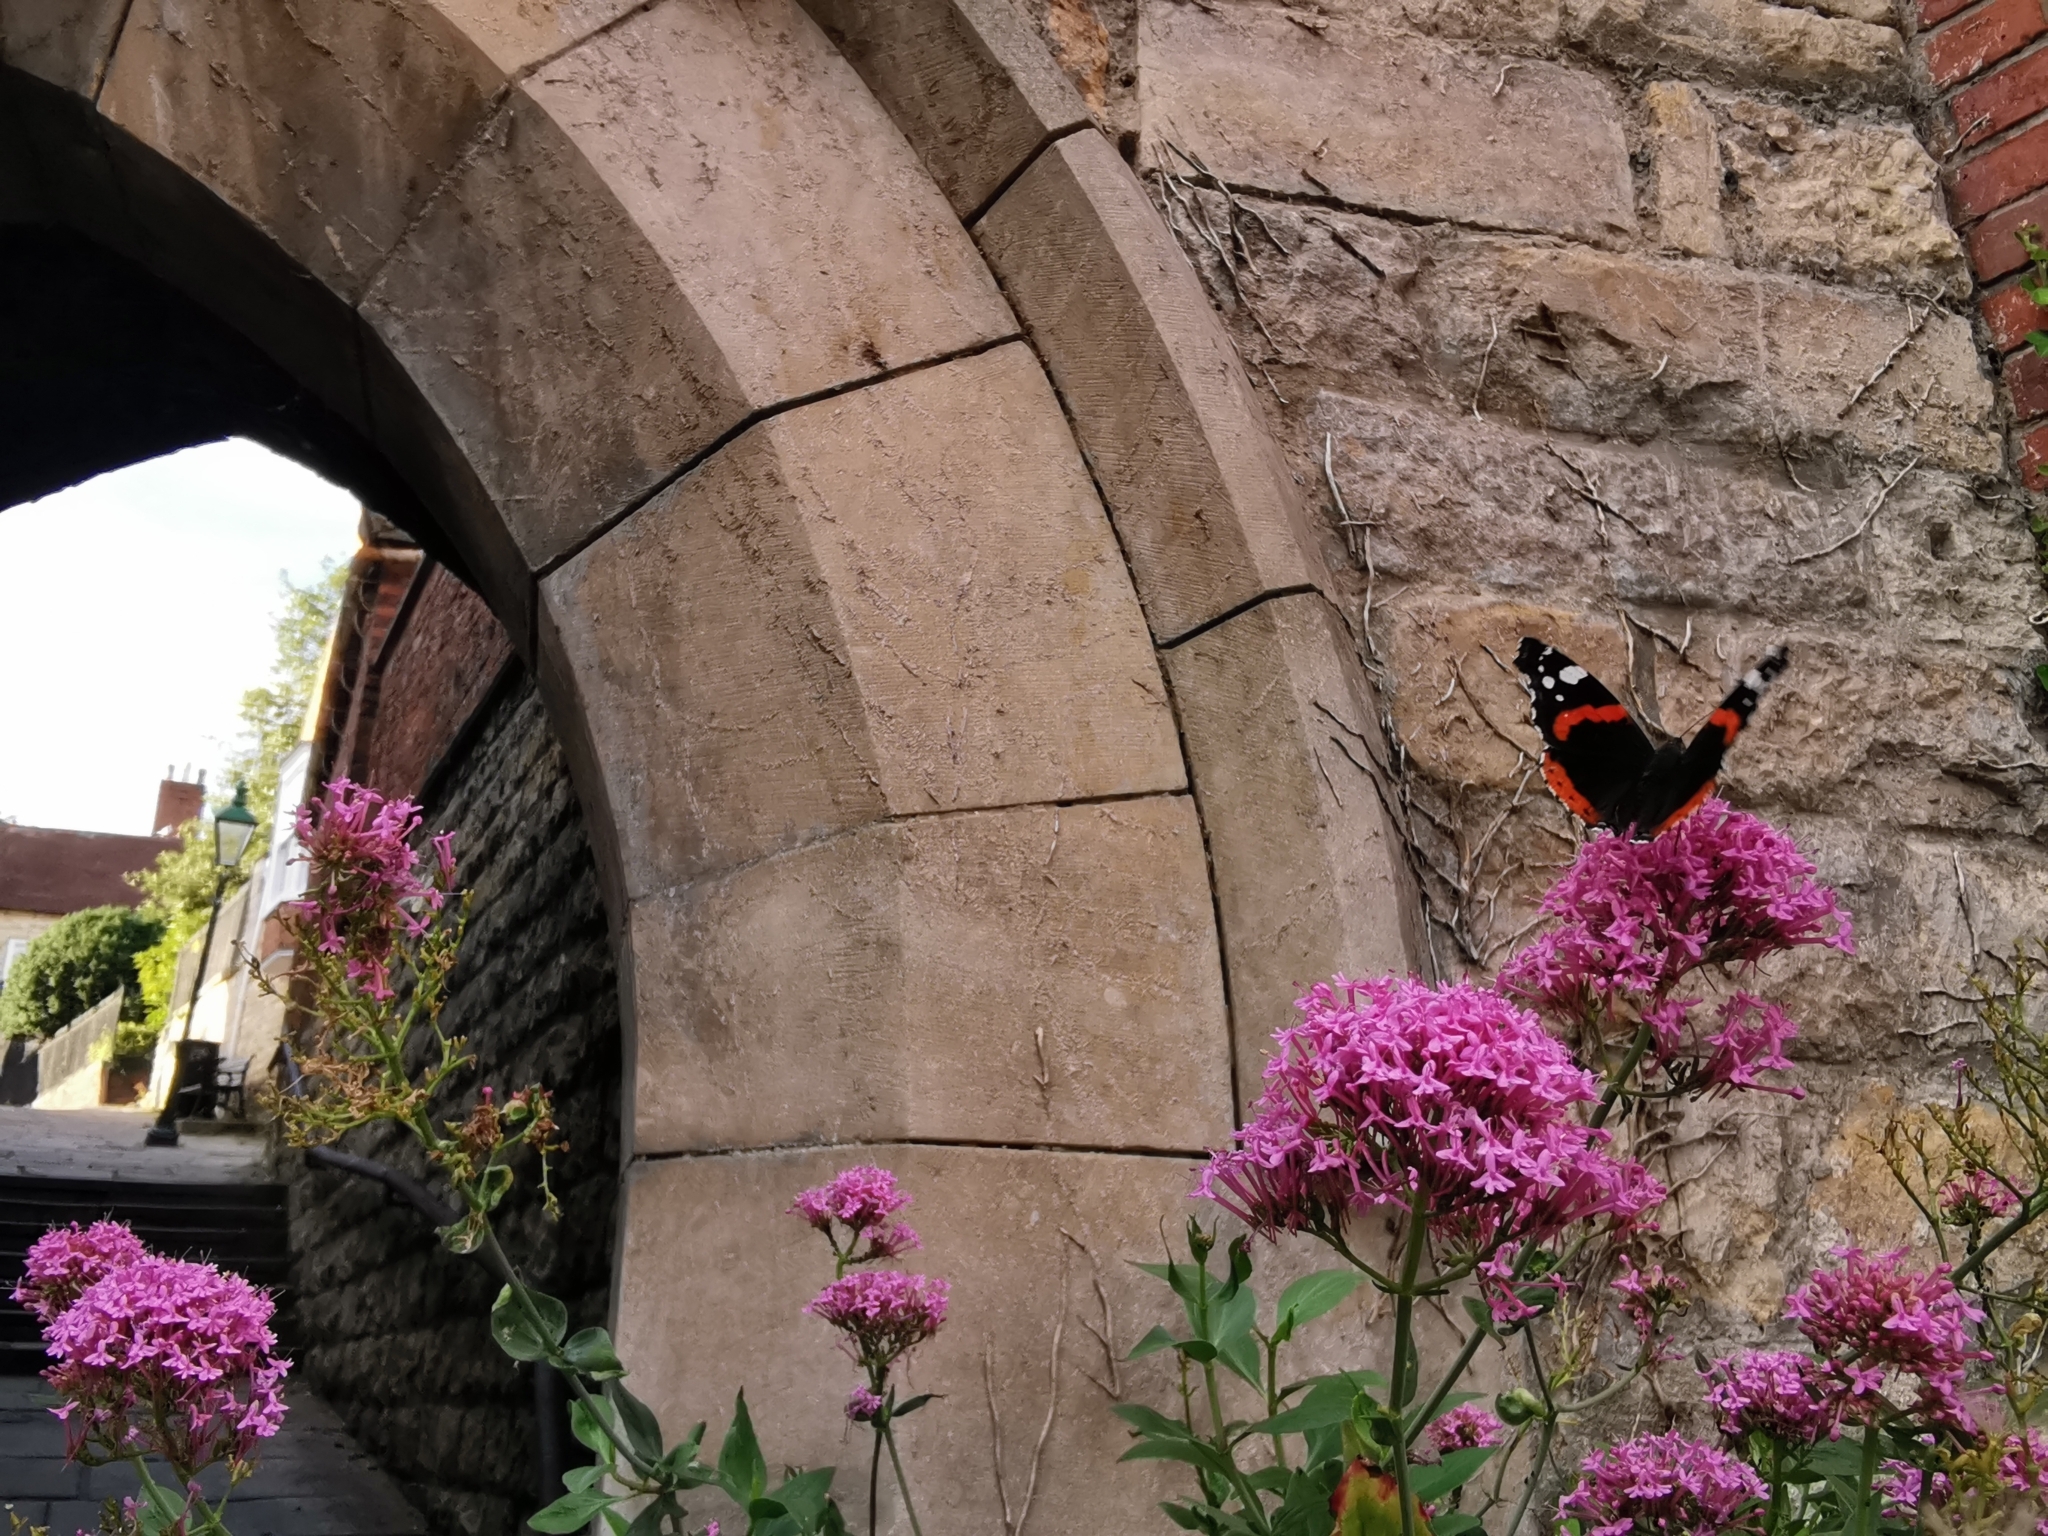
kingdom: Animalia
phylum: Arthropoda
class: Insecta
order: Lepidoptera
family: Nymphalidae
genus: Vanessa
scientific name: Vanessa atalanta
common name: Red admiral
